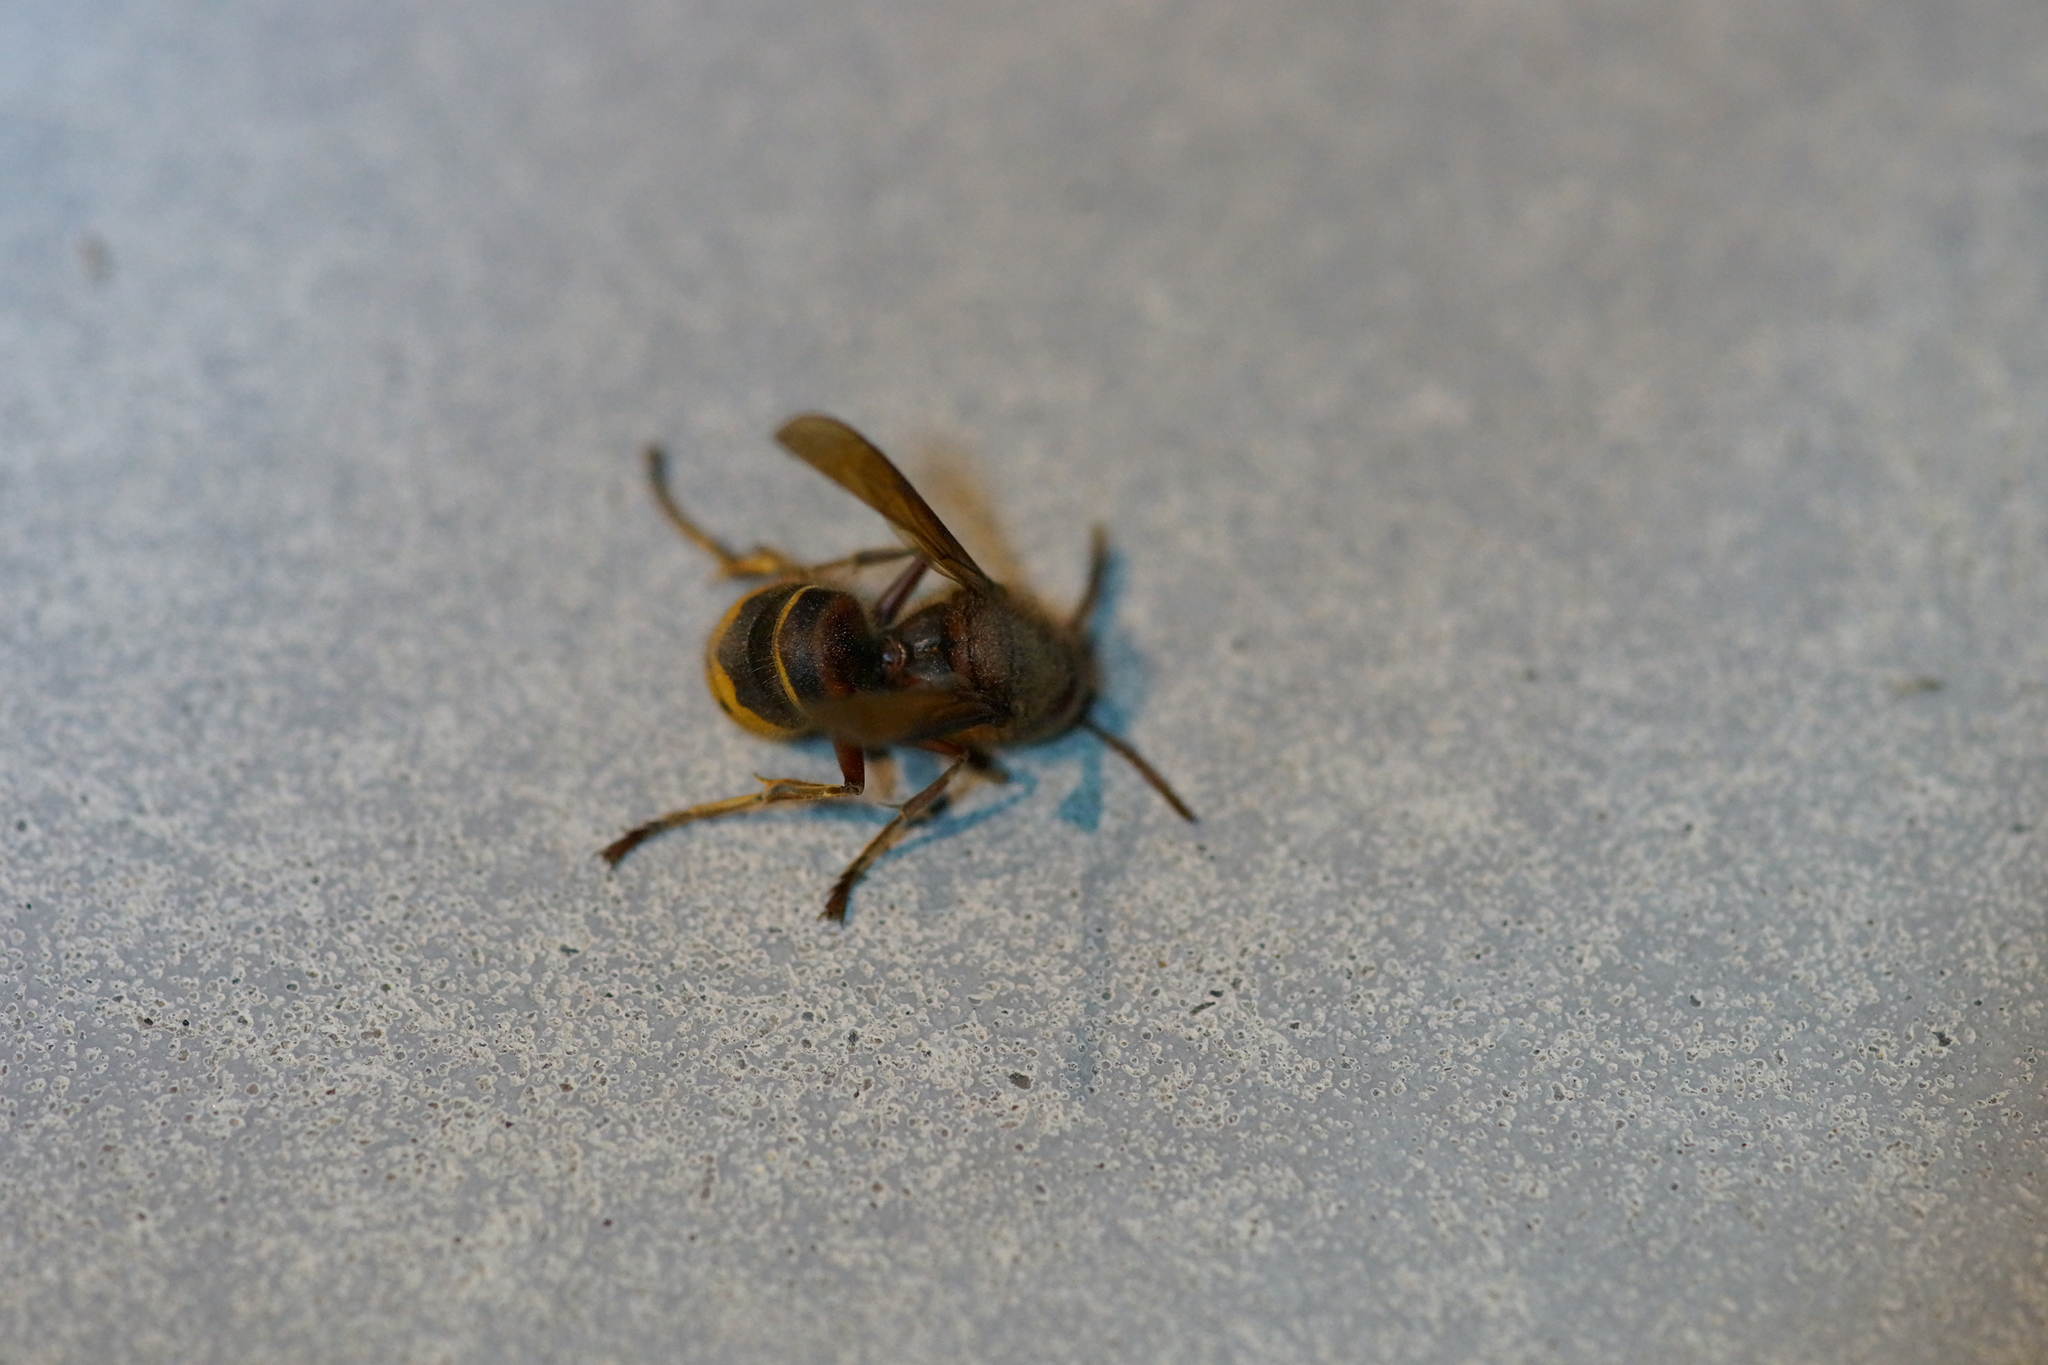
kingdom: Animalia
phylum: Arthropoda
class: Insecta
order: Hymenoptera
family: Vespidae
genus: Vespa
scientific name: Vespa crabro
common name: Hornet
